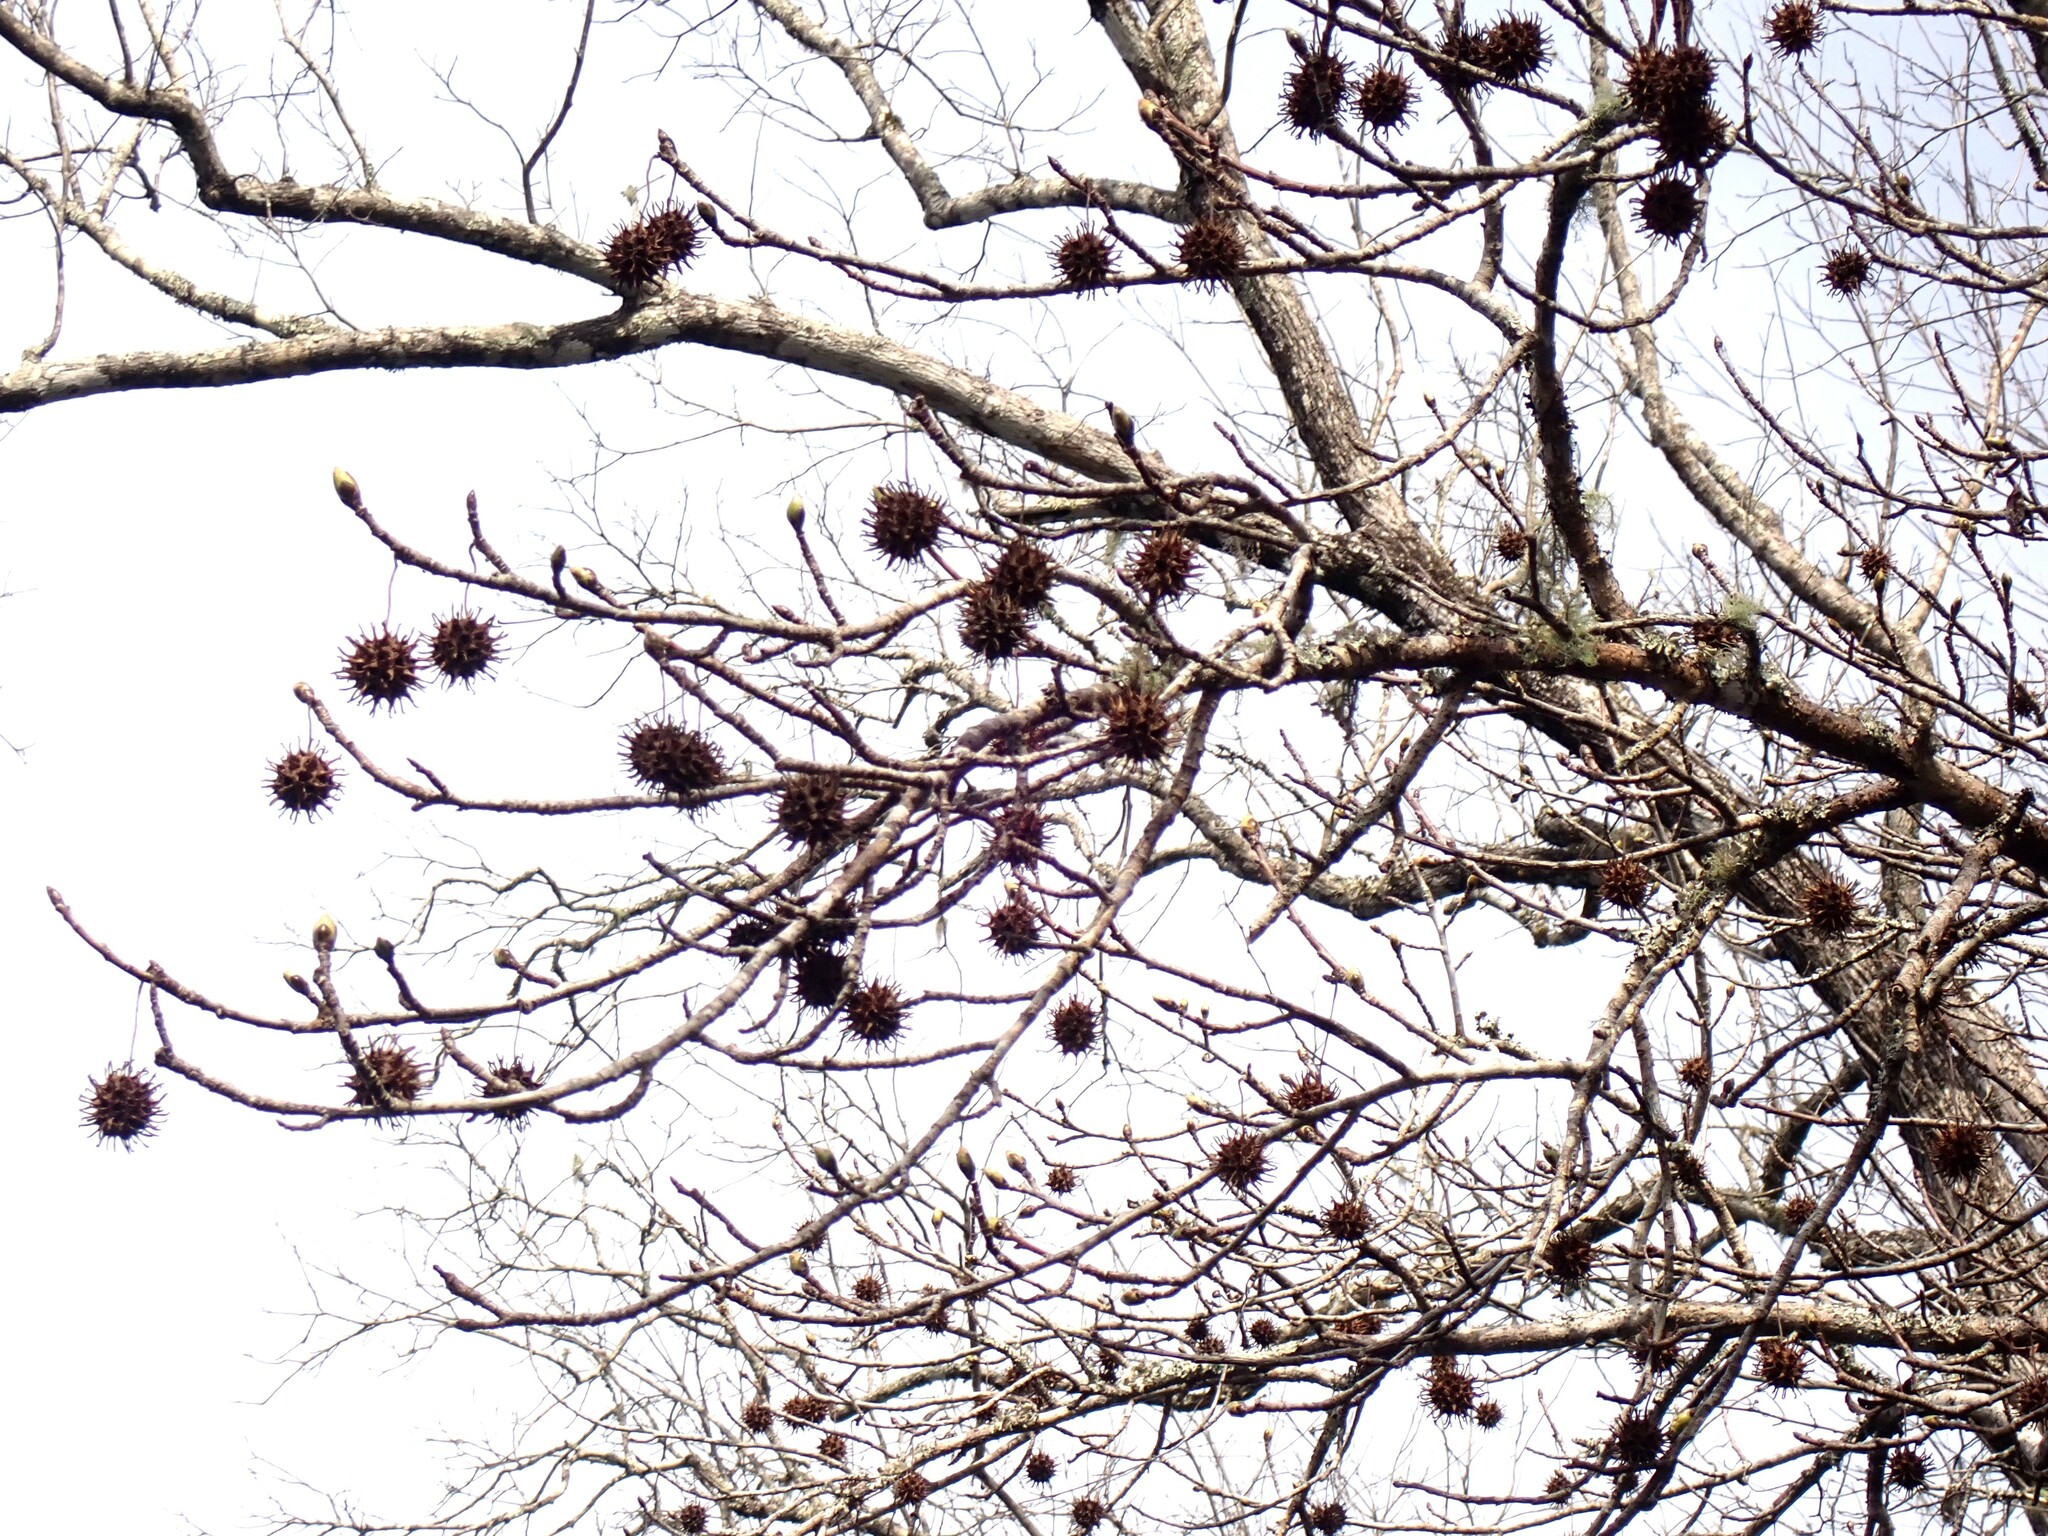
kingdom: Plantae
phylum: Tracheophyta
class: Magnoliopsida
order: Saxifragales
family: Altingiaceae
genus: Liquidambar
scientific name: Liquidambar styraciflua
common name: Sweet gum
